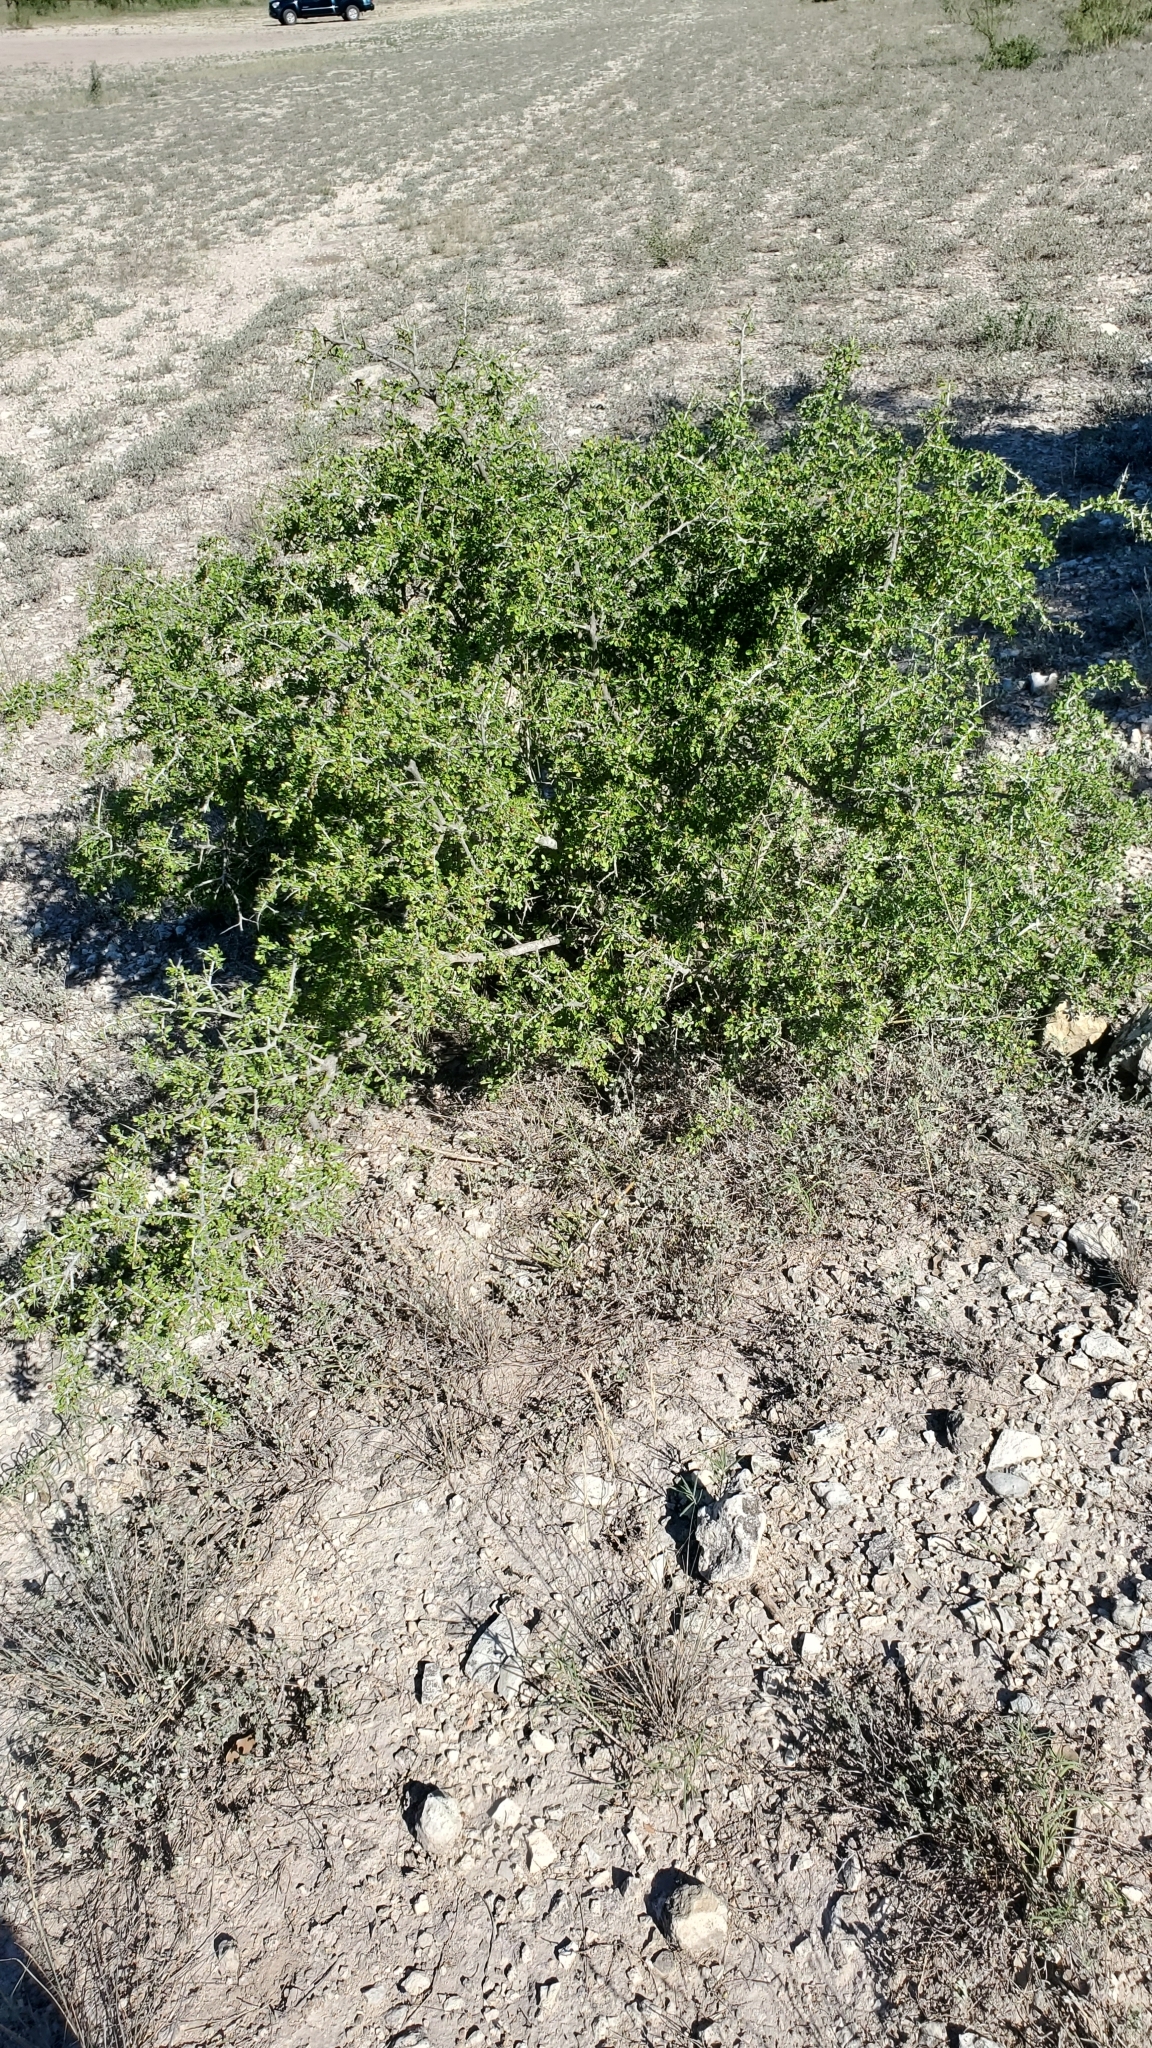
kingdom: Plantae
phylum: Tracheophyta
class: Magnoliopsida
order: Rosales
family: Rhamnaceae
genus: Condalia
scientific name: Condalia viridis
